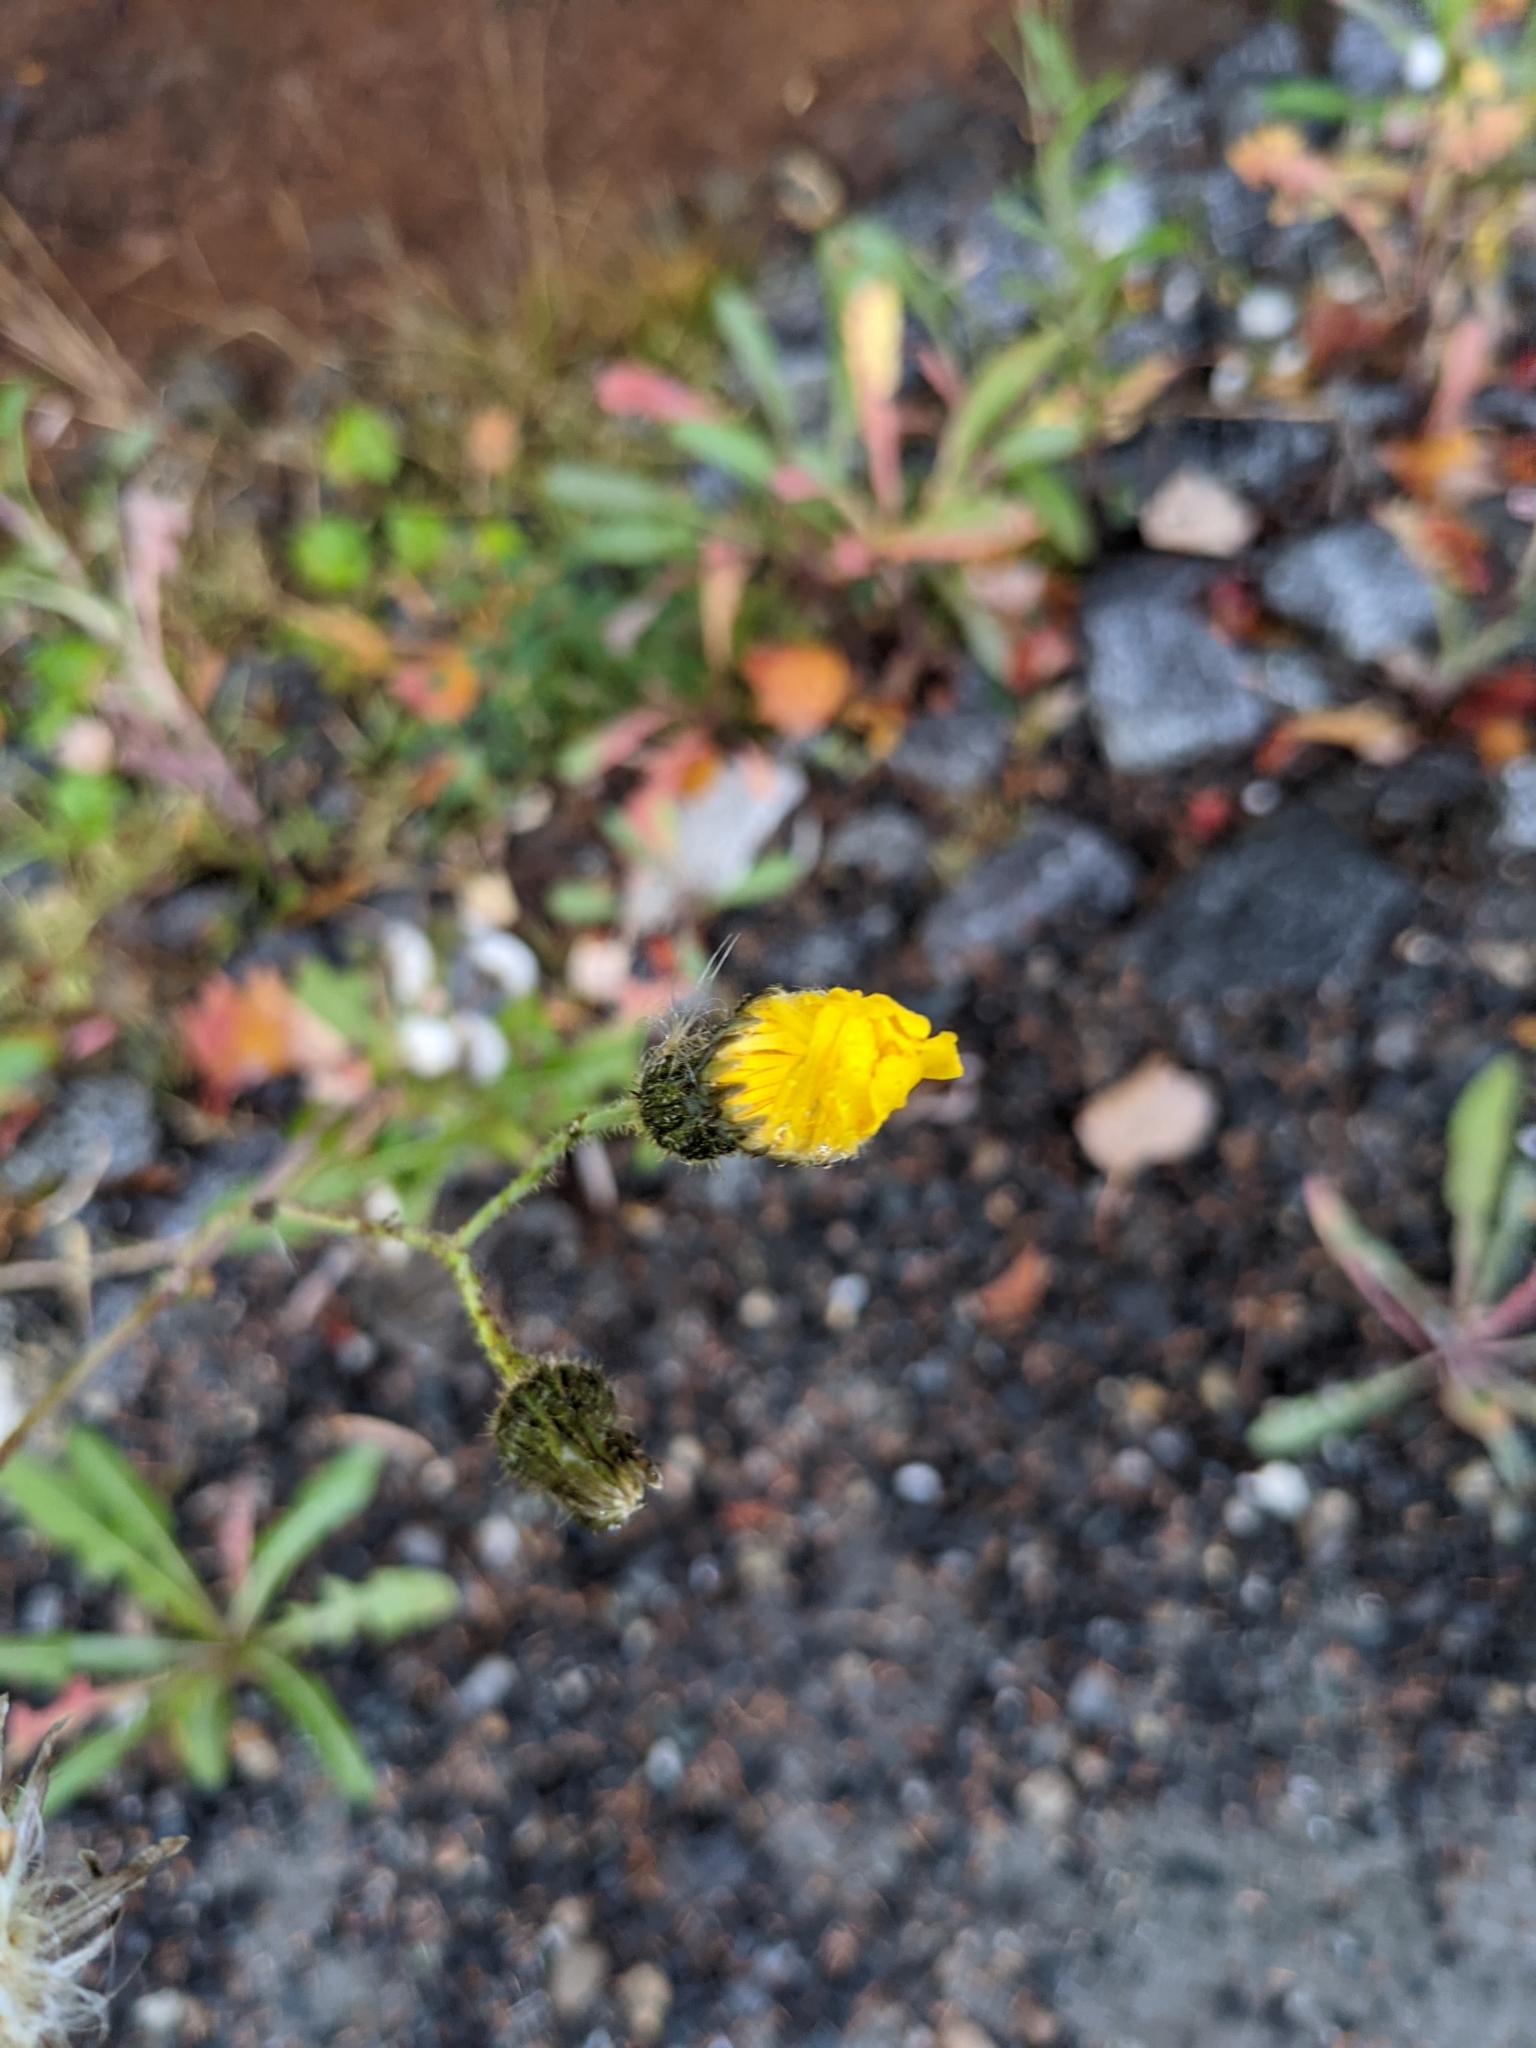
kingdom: Plantae
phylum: Tracheophyta
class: Magnoliopsida
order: Asterales
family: Asteraceae
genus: Sonchus
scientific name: Sonchus arvensis
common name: Perennial sow-thistle
